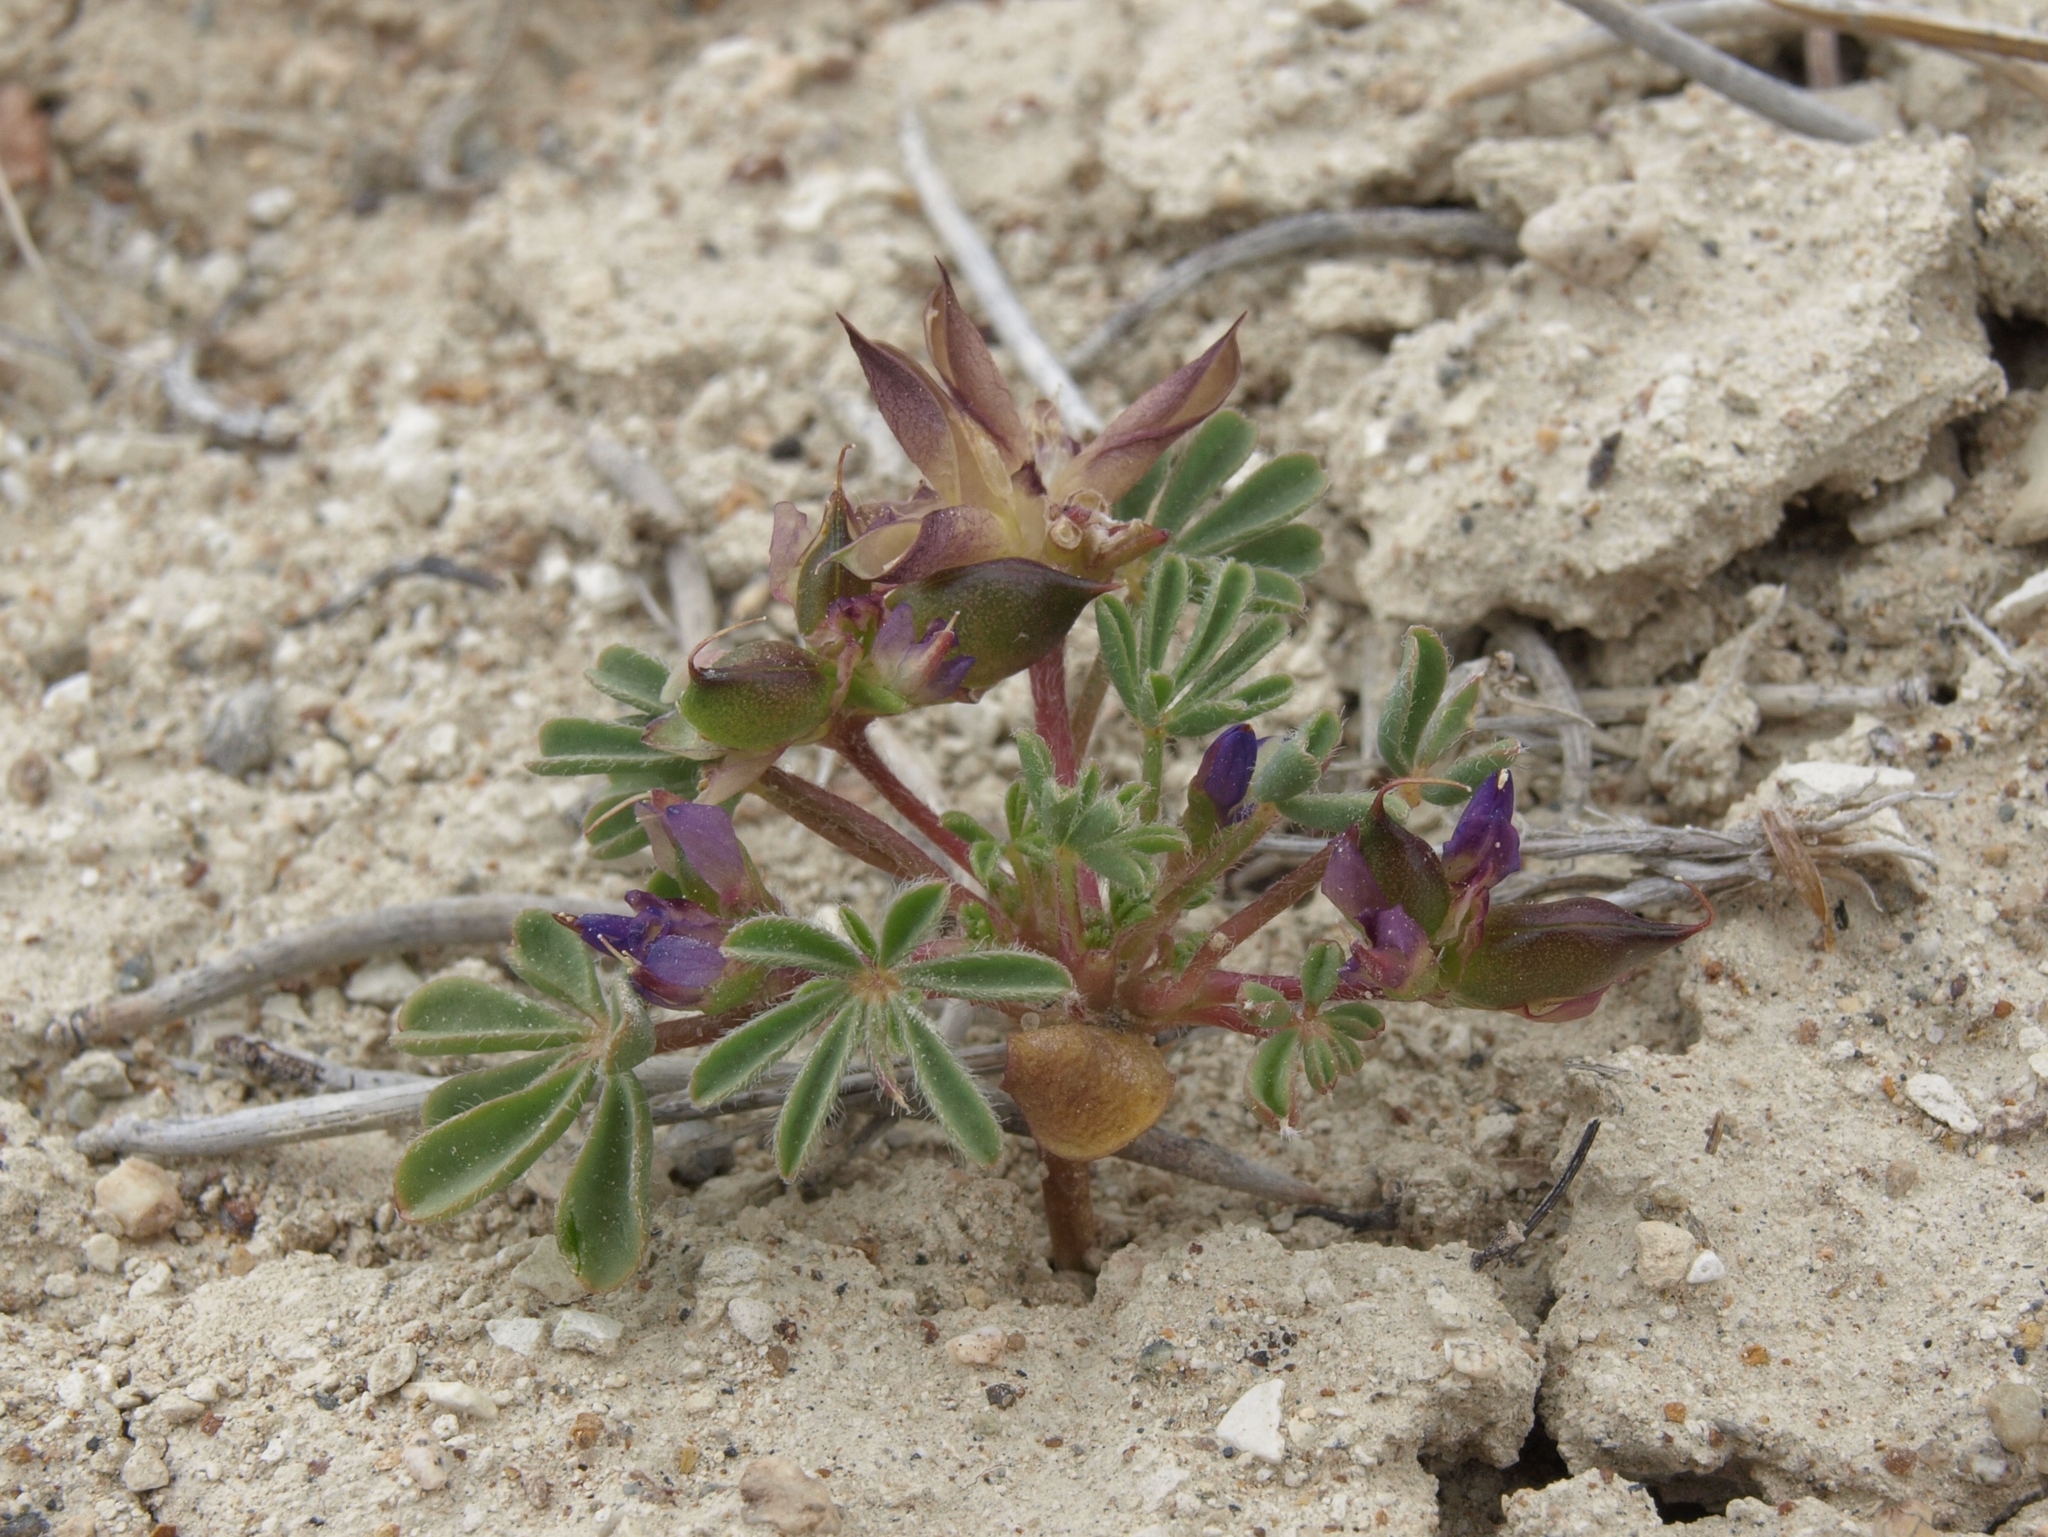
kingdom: Plantae
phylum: Tracheophyta
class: Magnoliopsida
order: Fabales
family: Fabaceae
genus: Lupinus
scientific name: Lupinus brevicaulis
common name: Sand lupine
